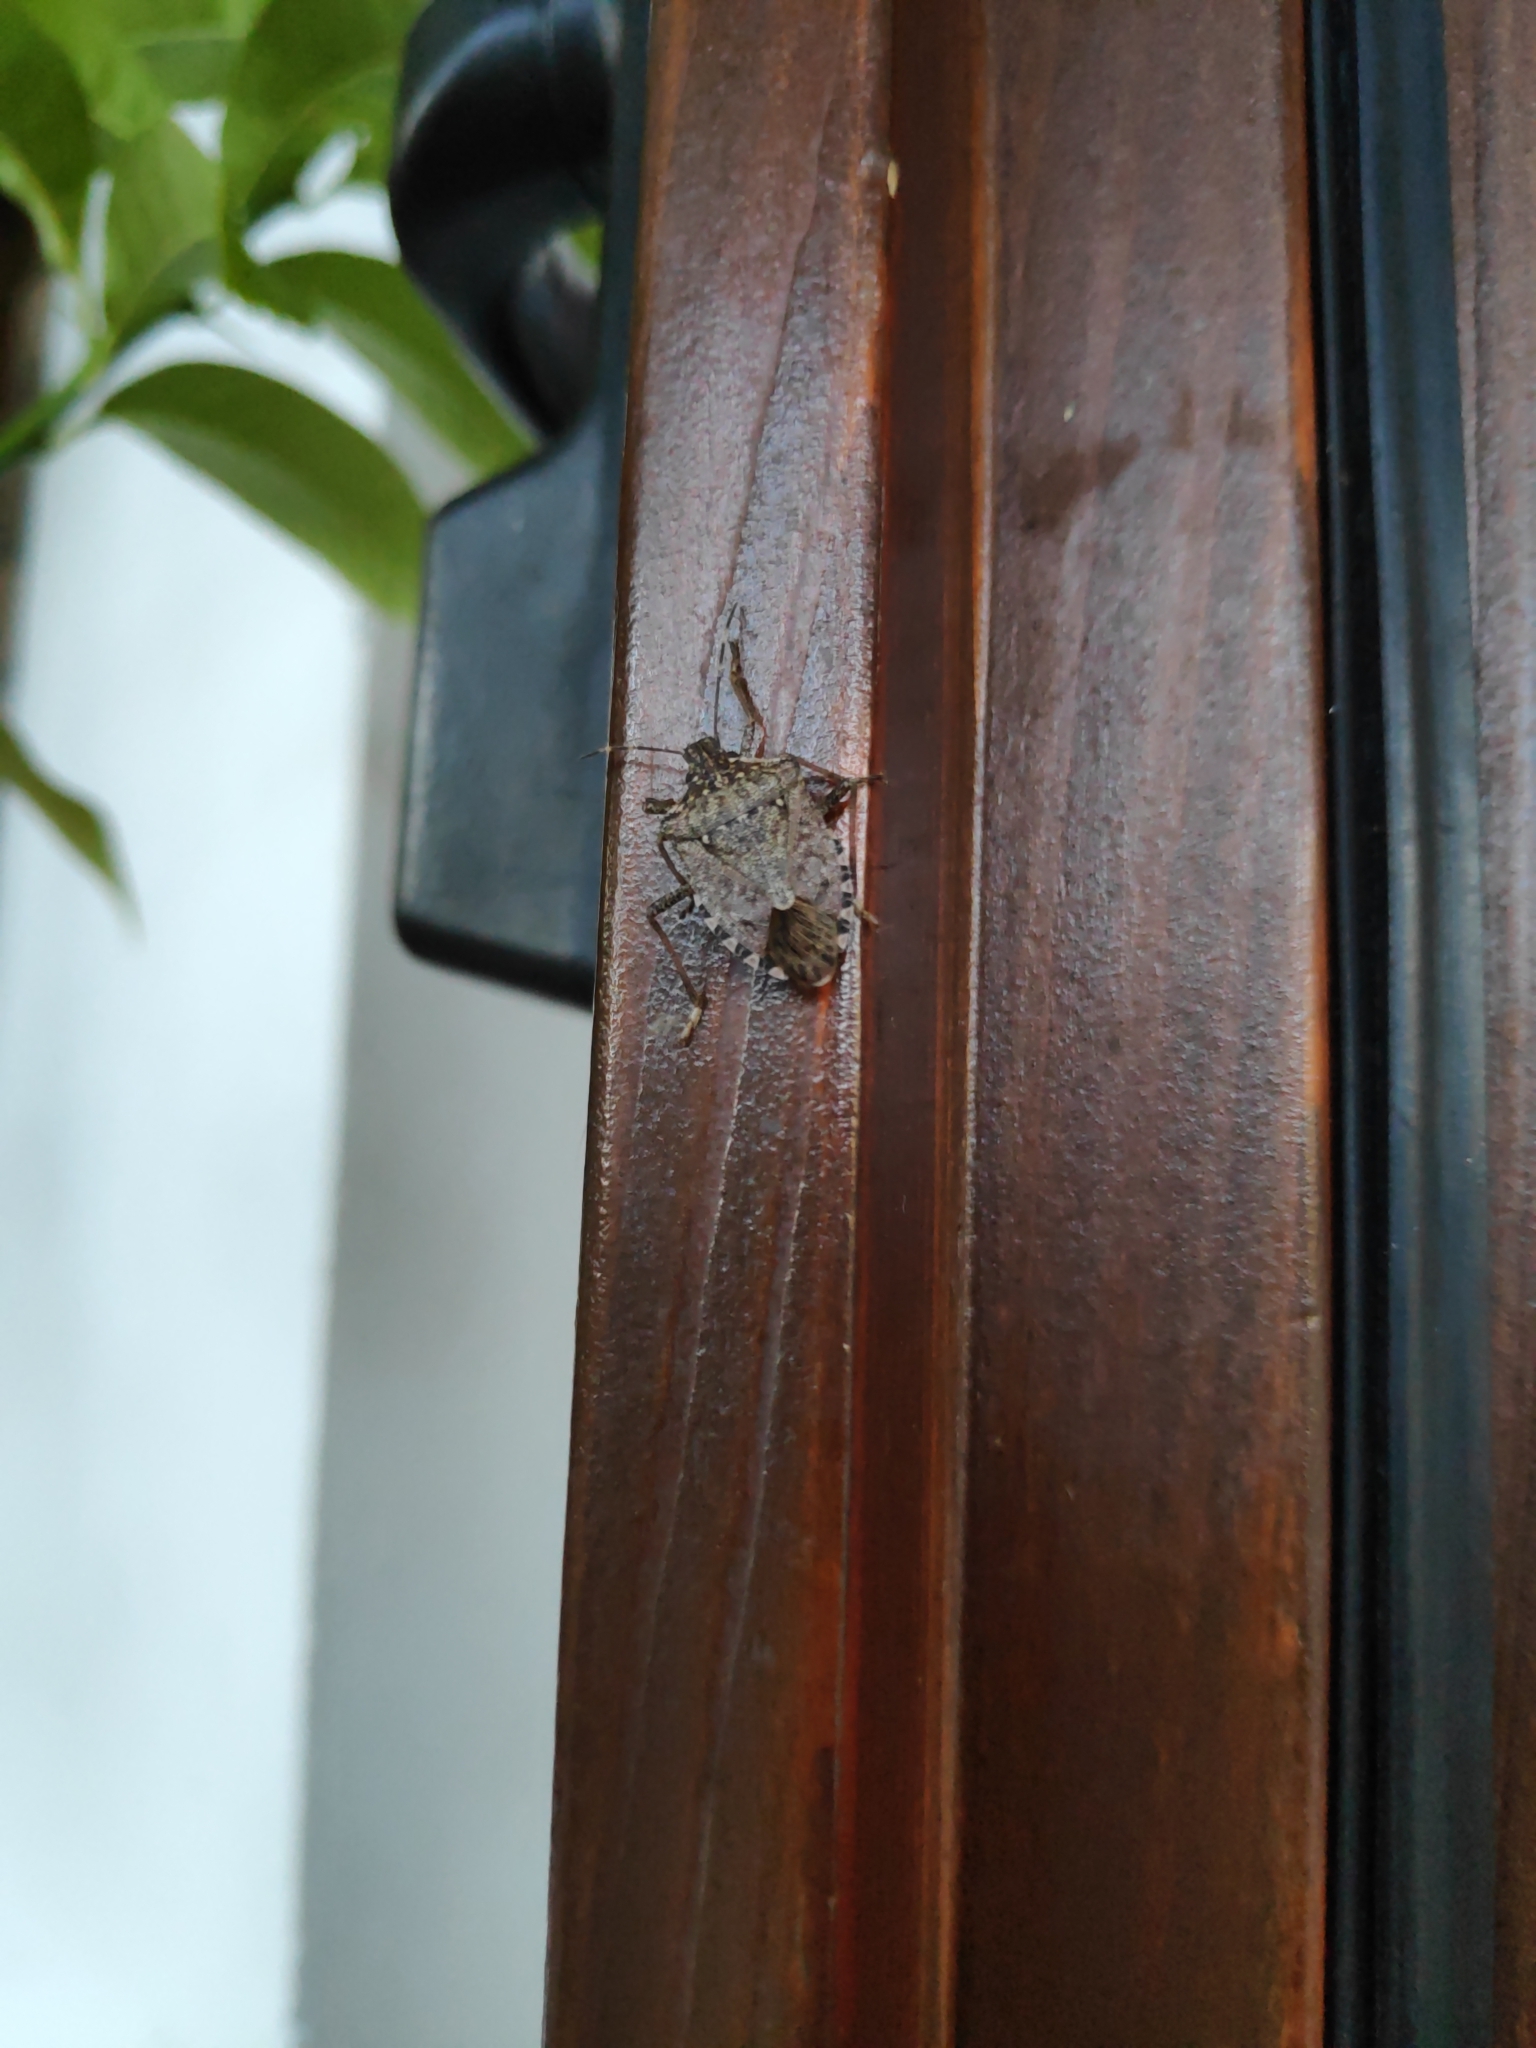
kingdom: Animalia
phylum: Arthropoda
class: Insecta
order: Hemiptera
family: Pentatomidae
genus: Halyomorpha
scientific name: Halyomorpha halys
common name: Brown marmorated stink bug
